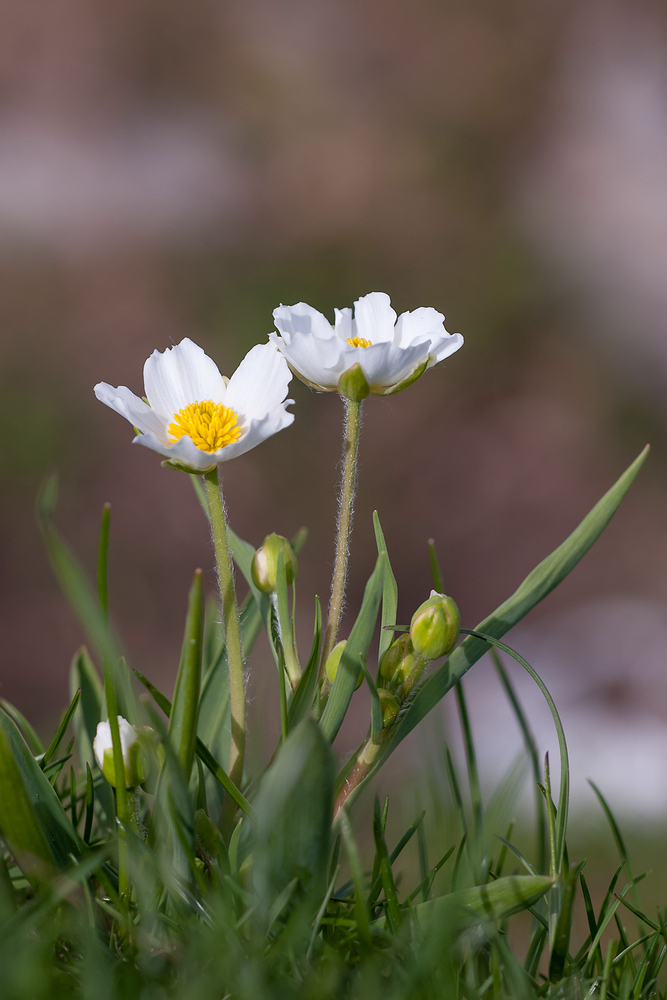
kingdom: Plantae
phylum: Tracheophyta
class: Magnoliopsida
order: Ranunculales
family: Ranunculaceae
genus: Ranunculus
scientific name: Ranunculus kuepferi
